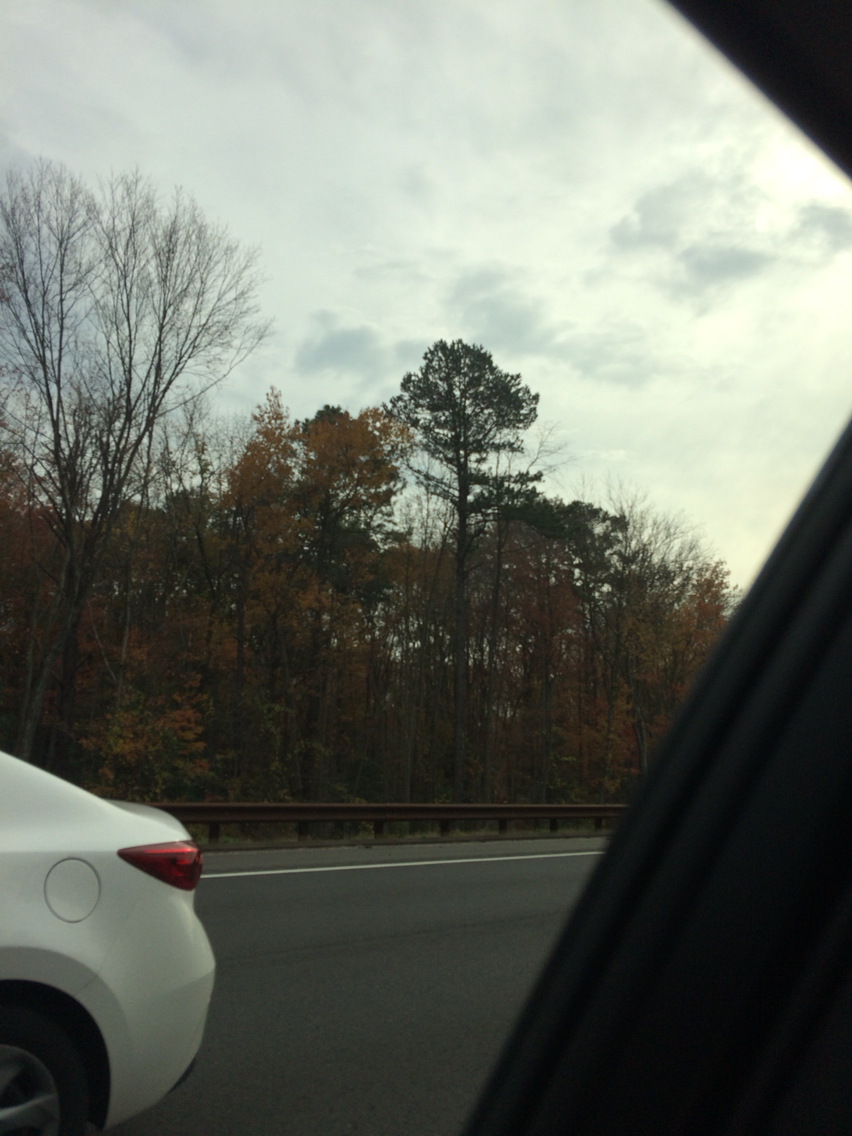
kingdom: Plantae
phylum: Tracheophyta
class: Pinopsida
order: Pinales
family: Pinaceae
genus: Pinus
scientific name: Pinus rigida
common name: Pitch pine
